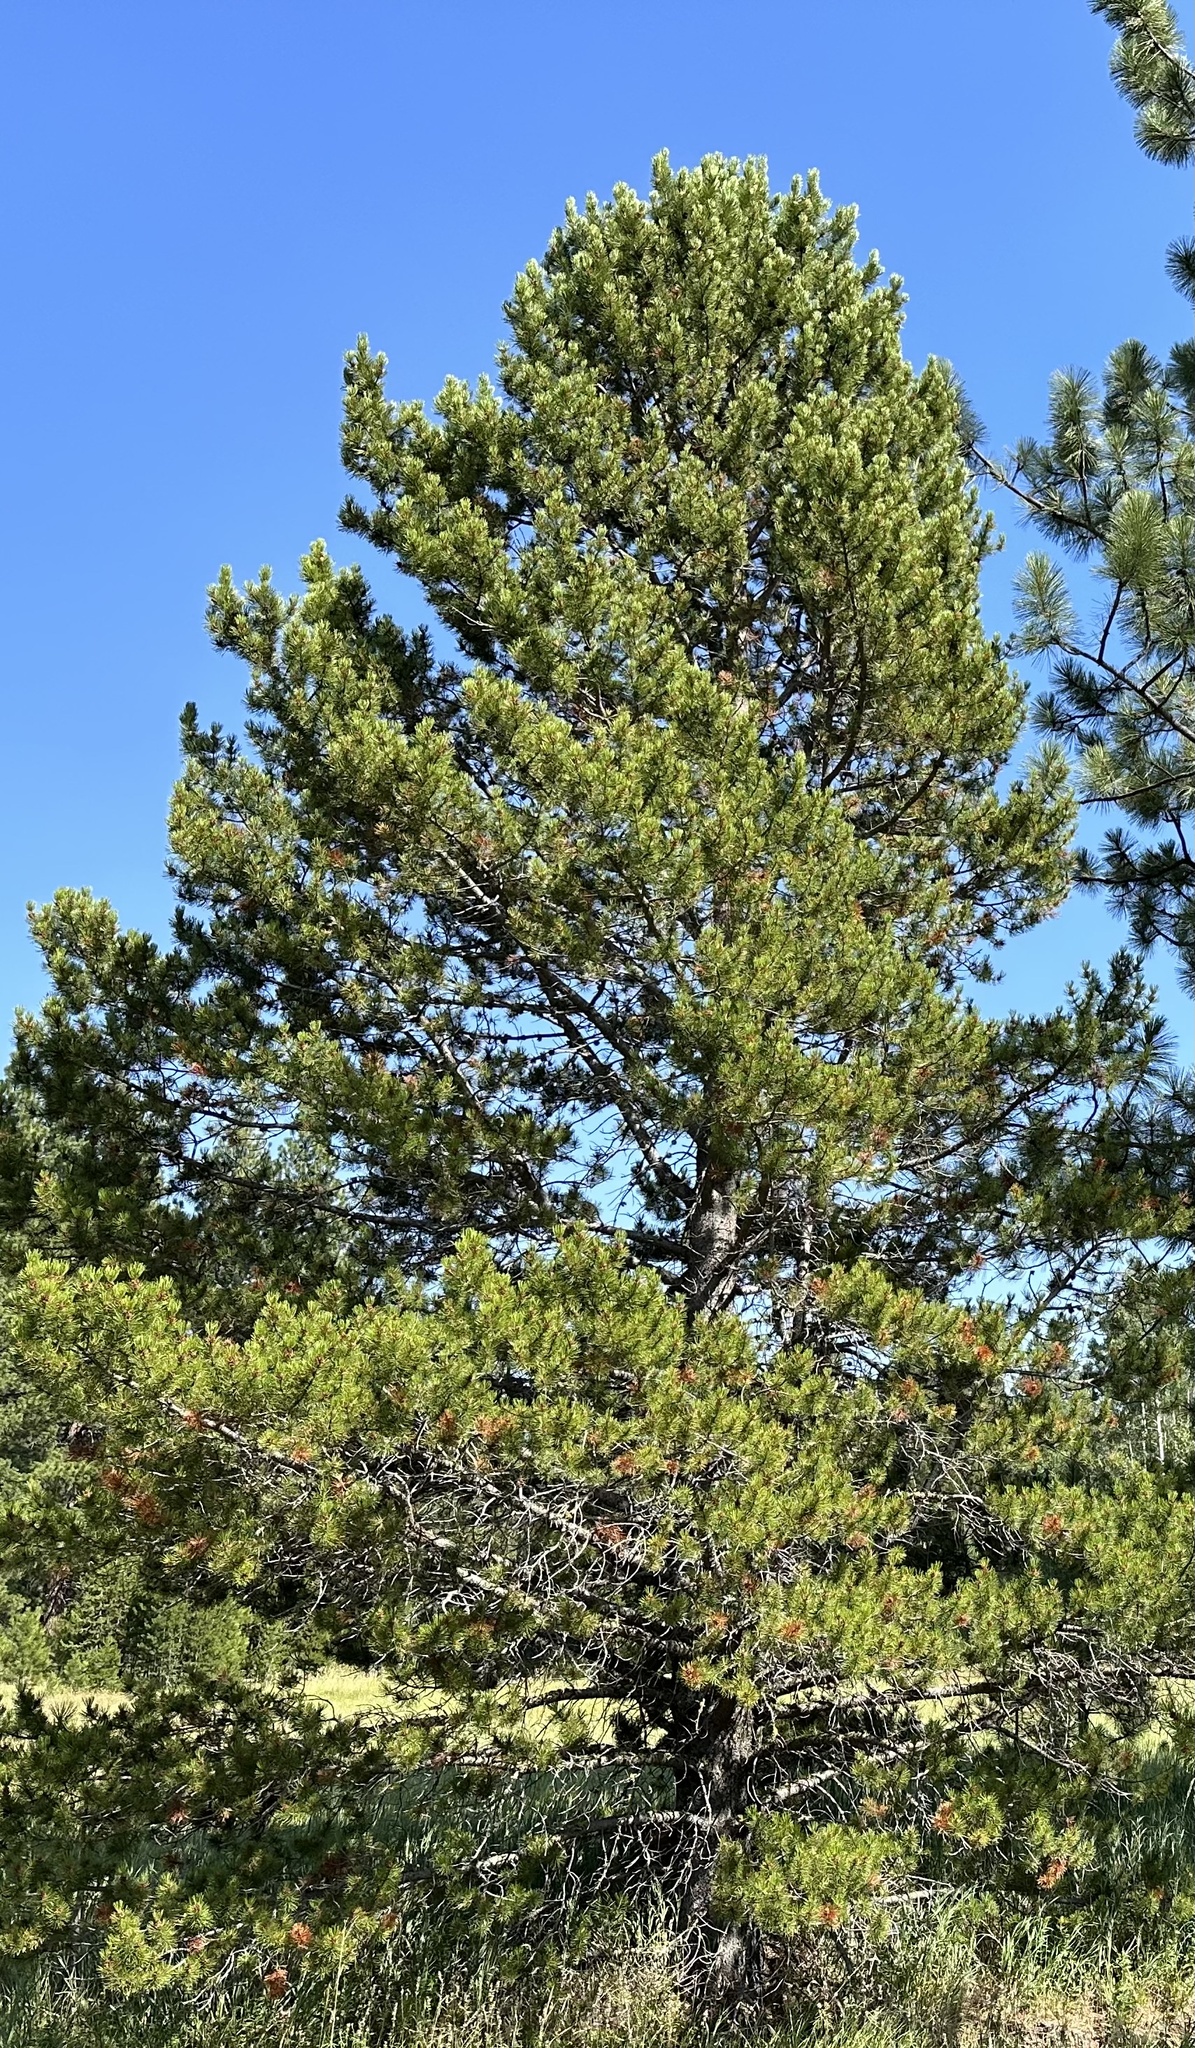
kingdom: Plantae
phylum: Tracheophyta
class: Pinopsida
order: Pinales
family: Pinaceae
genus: Pinus
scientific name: Pinus contorta
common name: Lodgepole pine
